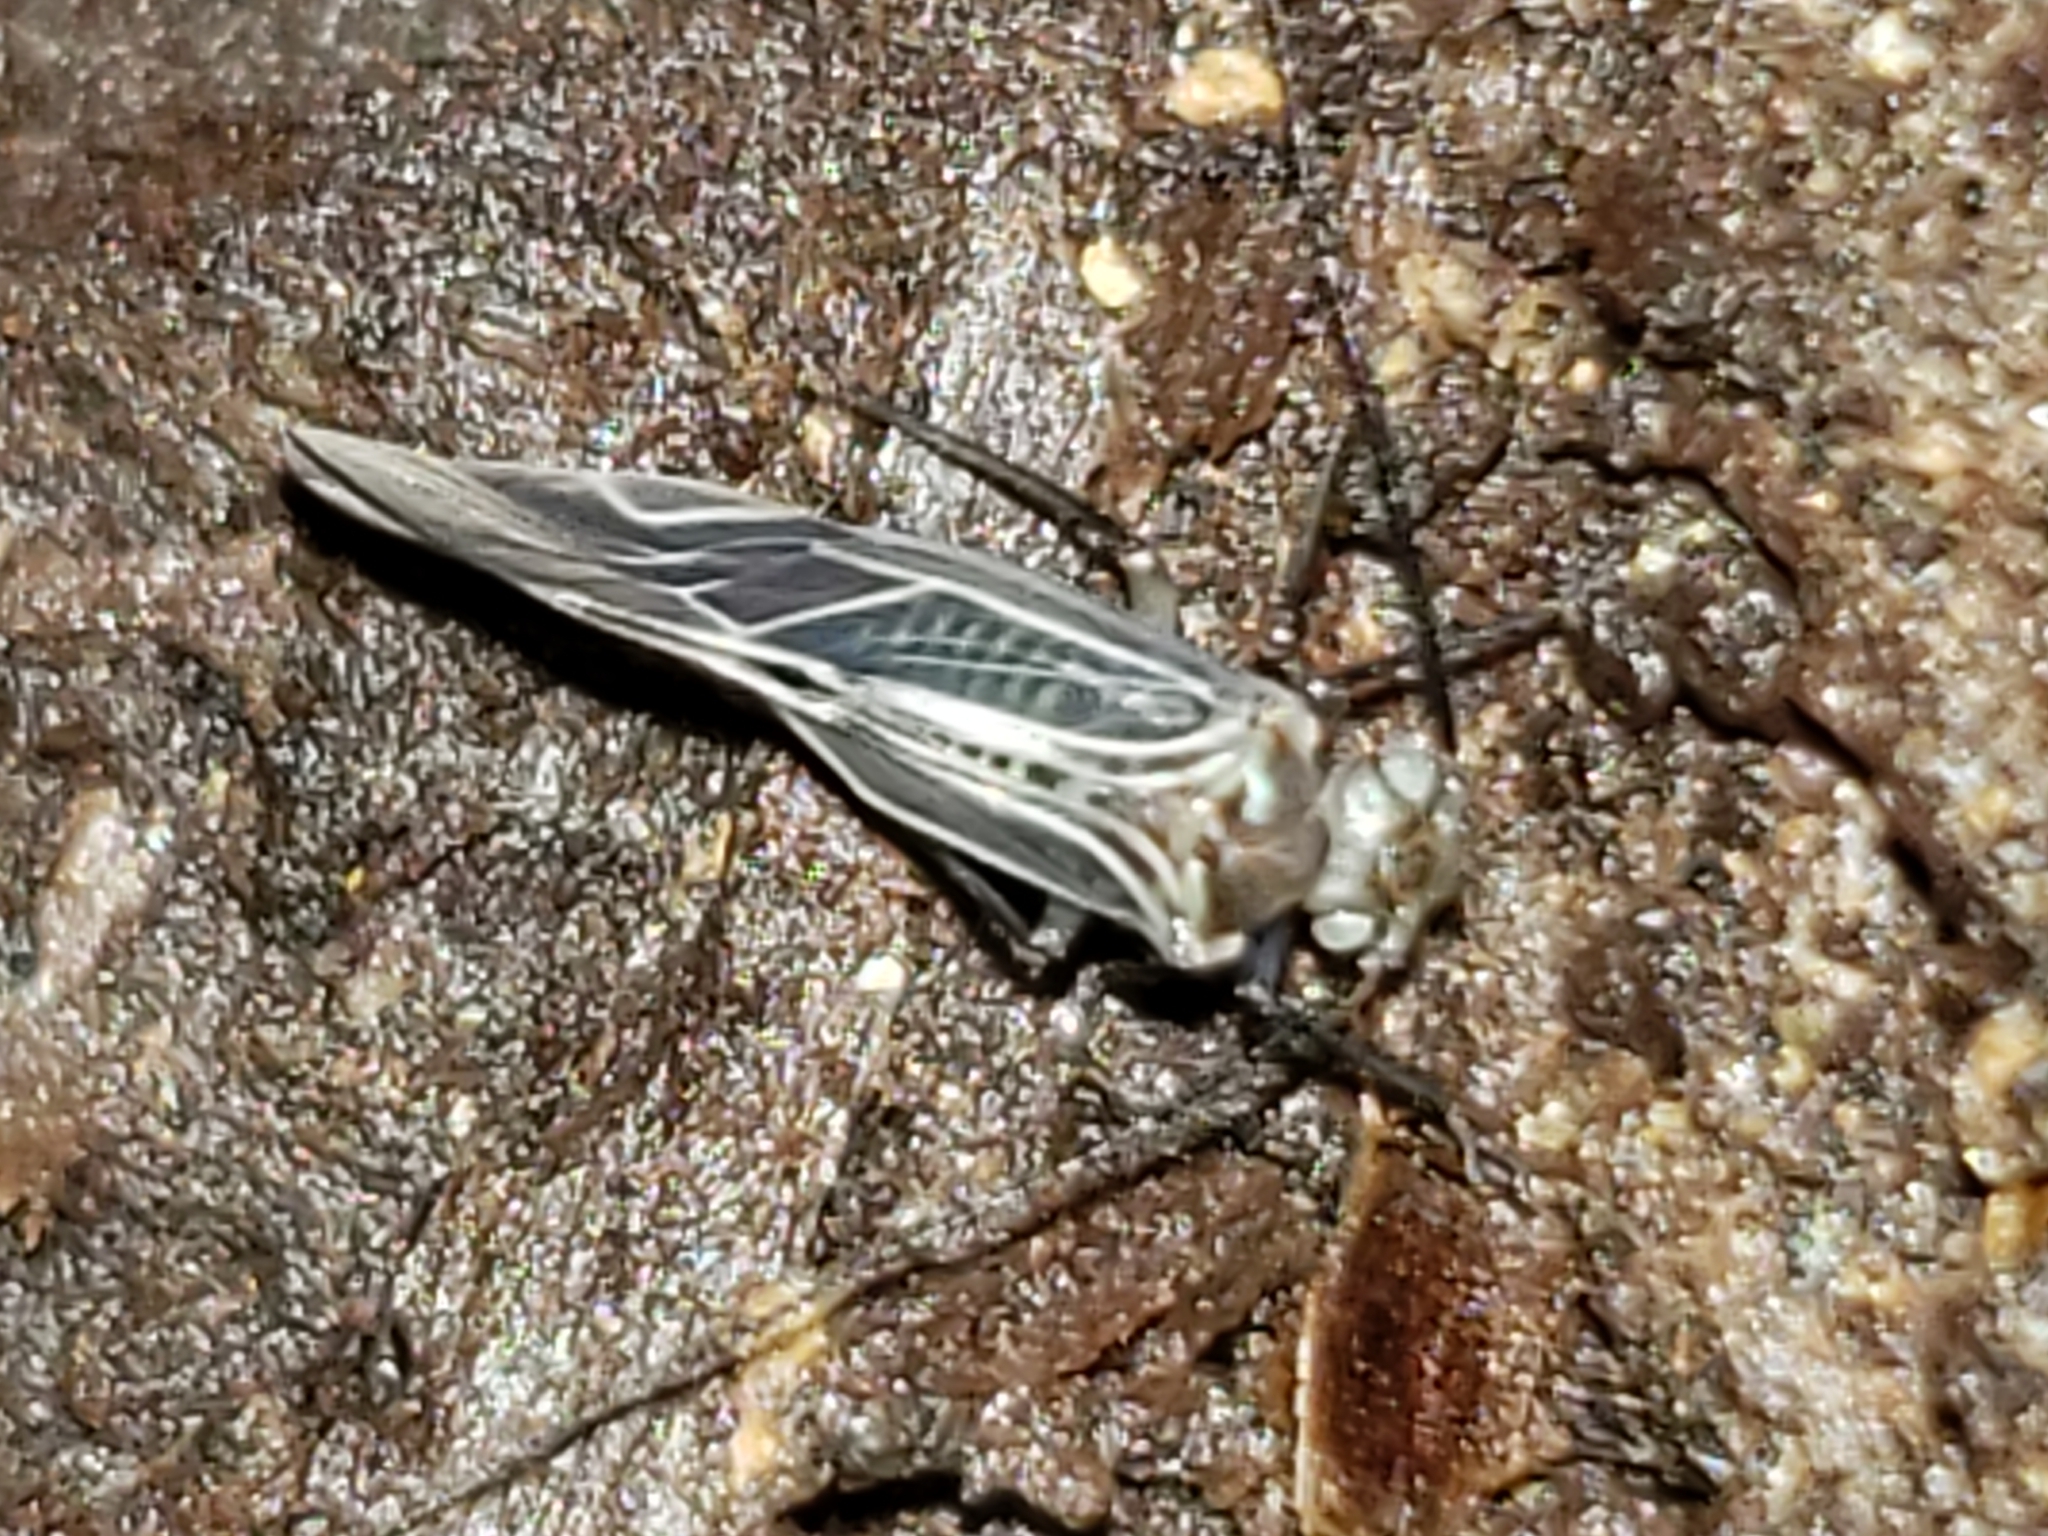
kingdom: Animalia
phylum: Arthropoda
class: Insecta
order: Psocodea
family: Psocidae
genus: Cerastipsocus
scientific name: Cerastipsocus venosus
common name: Tree cattle
